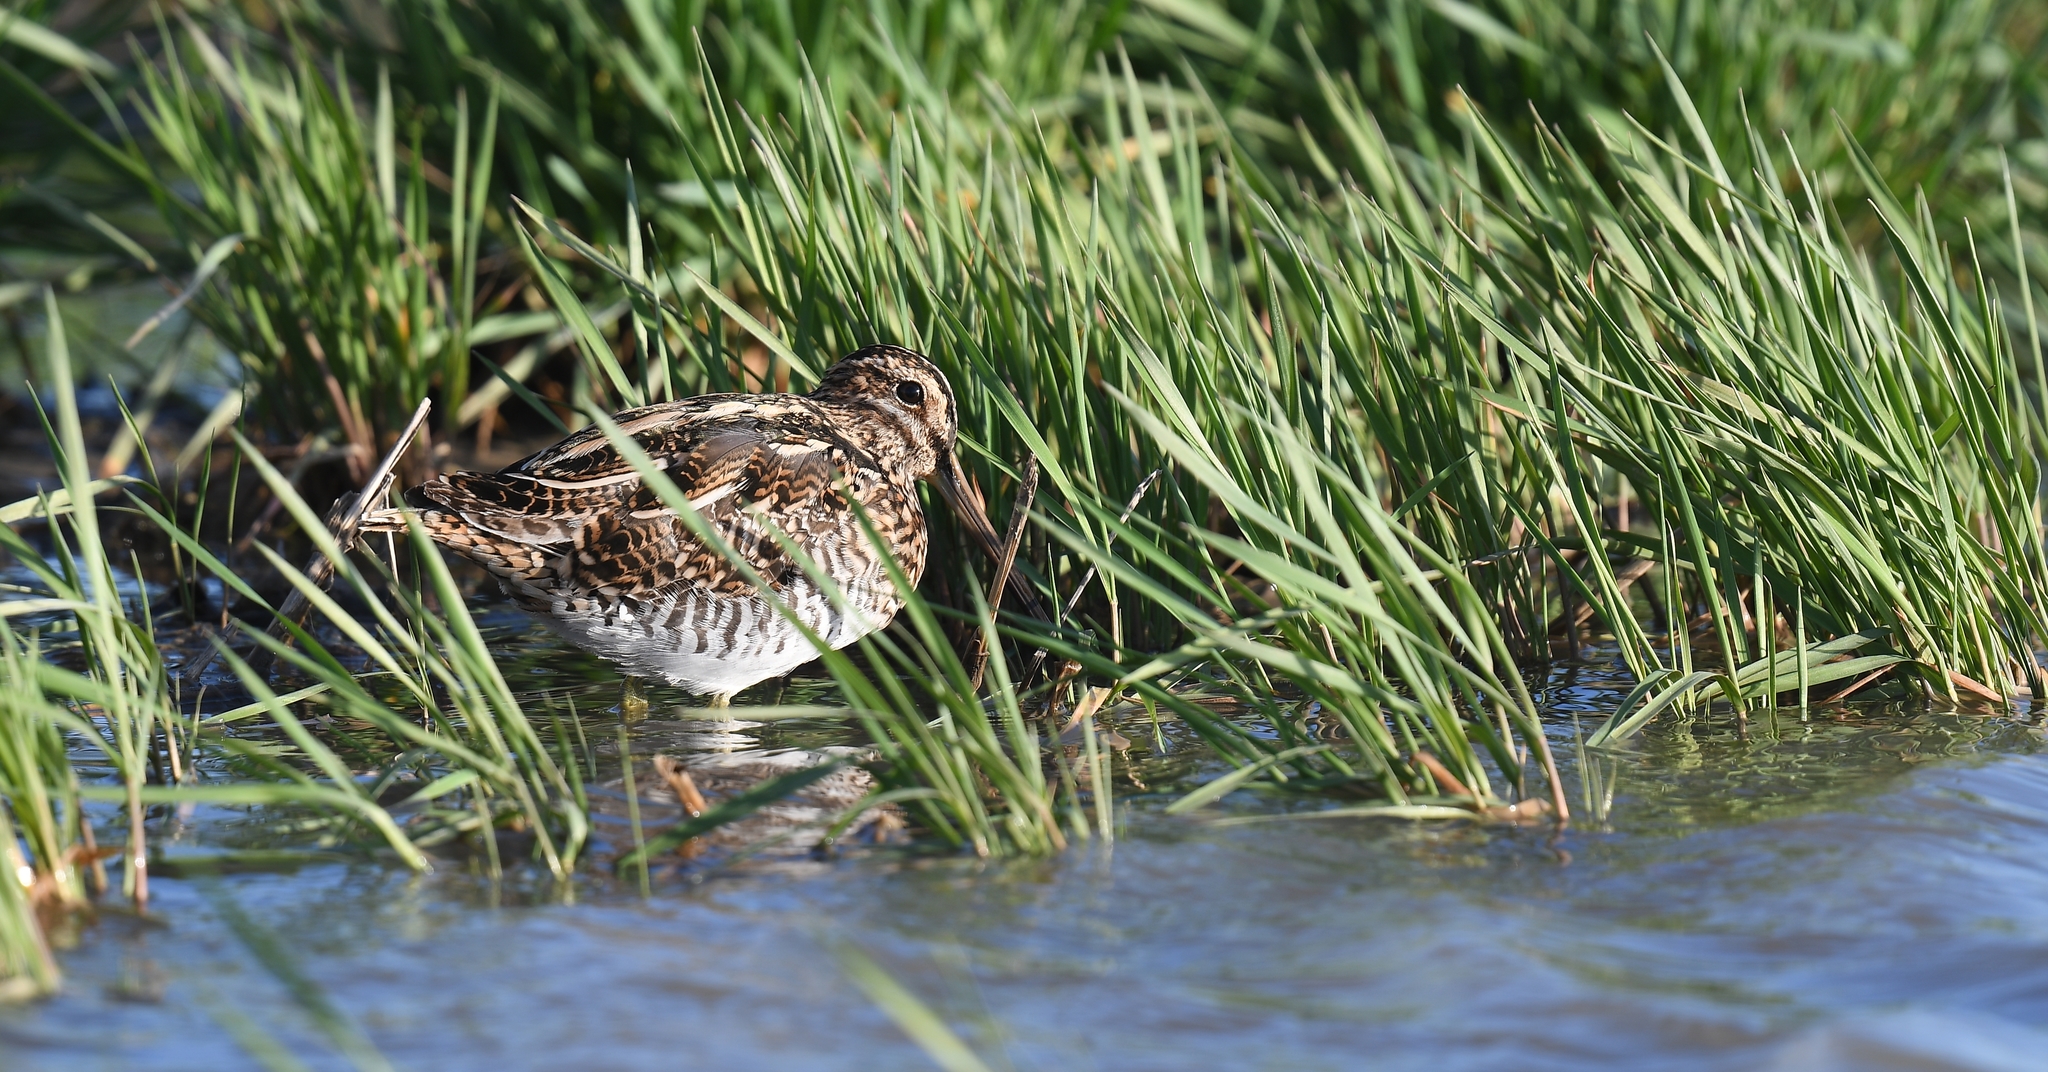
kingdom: Animalia
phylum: Chordata
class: Aves
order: Charadriiformes
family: Scolopacidae
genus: Gallinago
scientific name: Gallinago delicata
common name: Wilson's snipe
